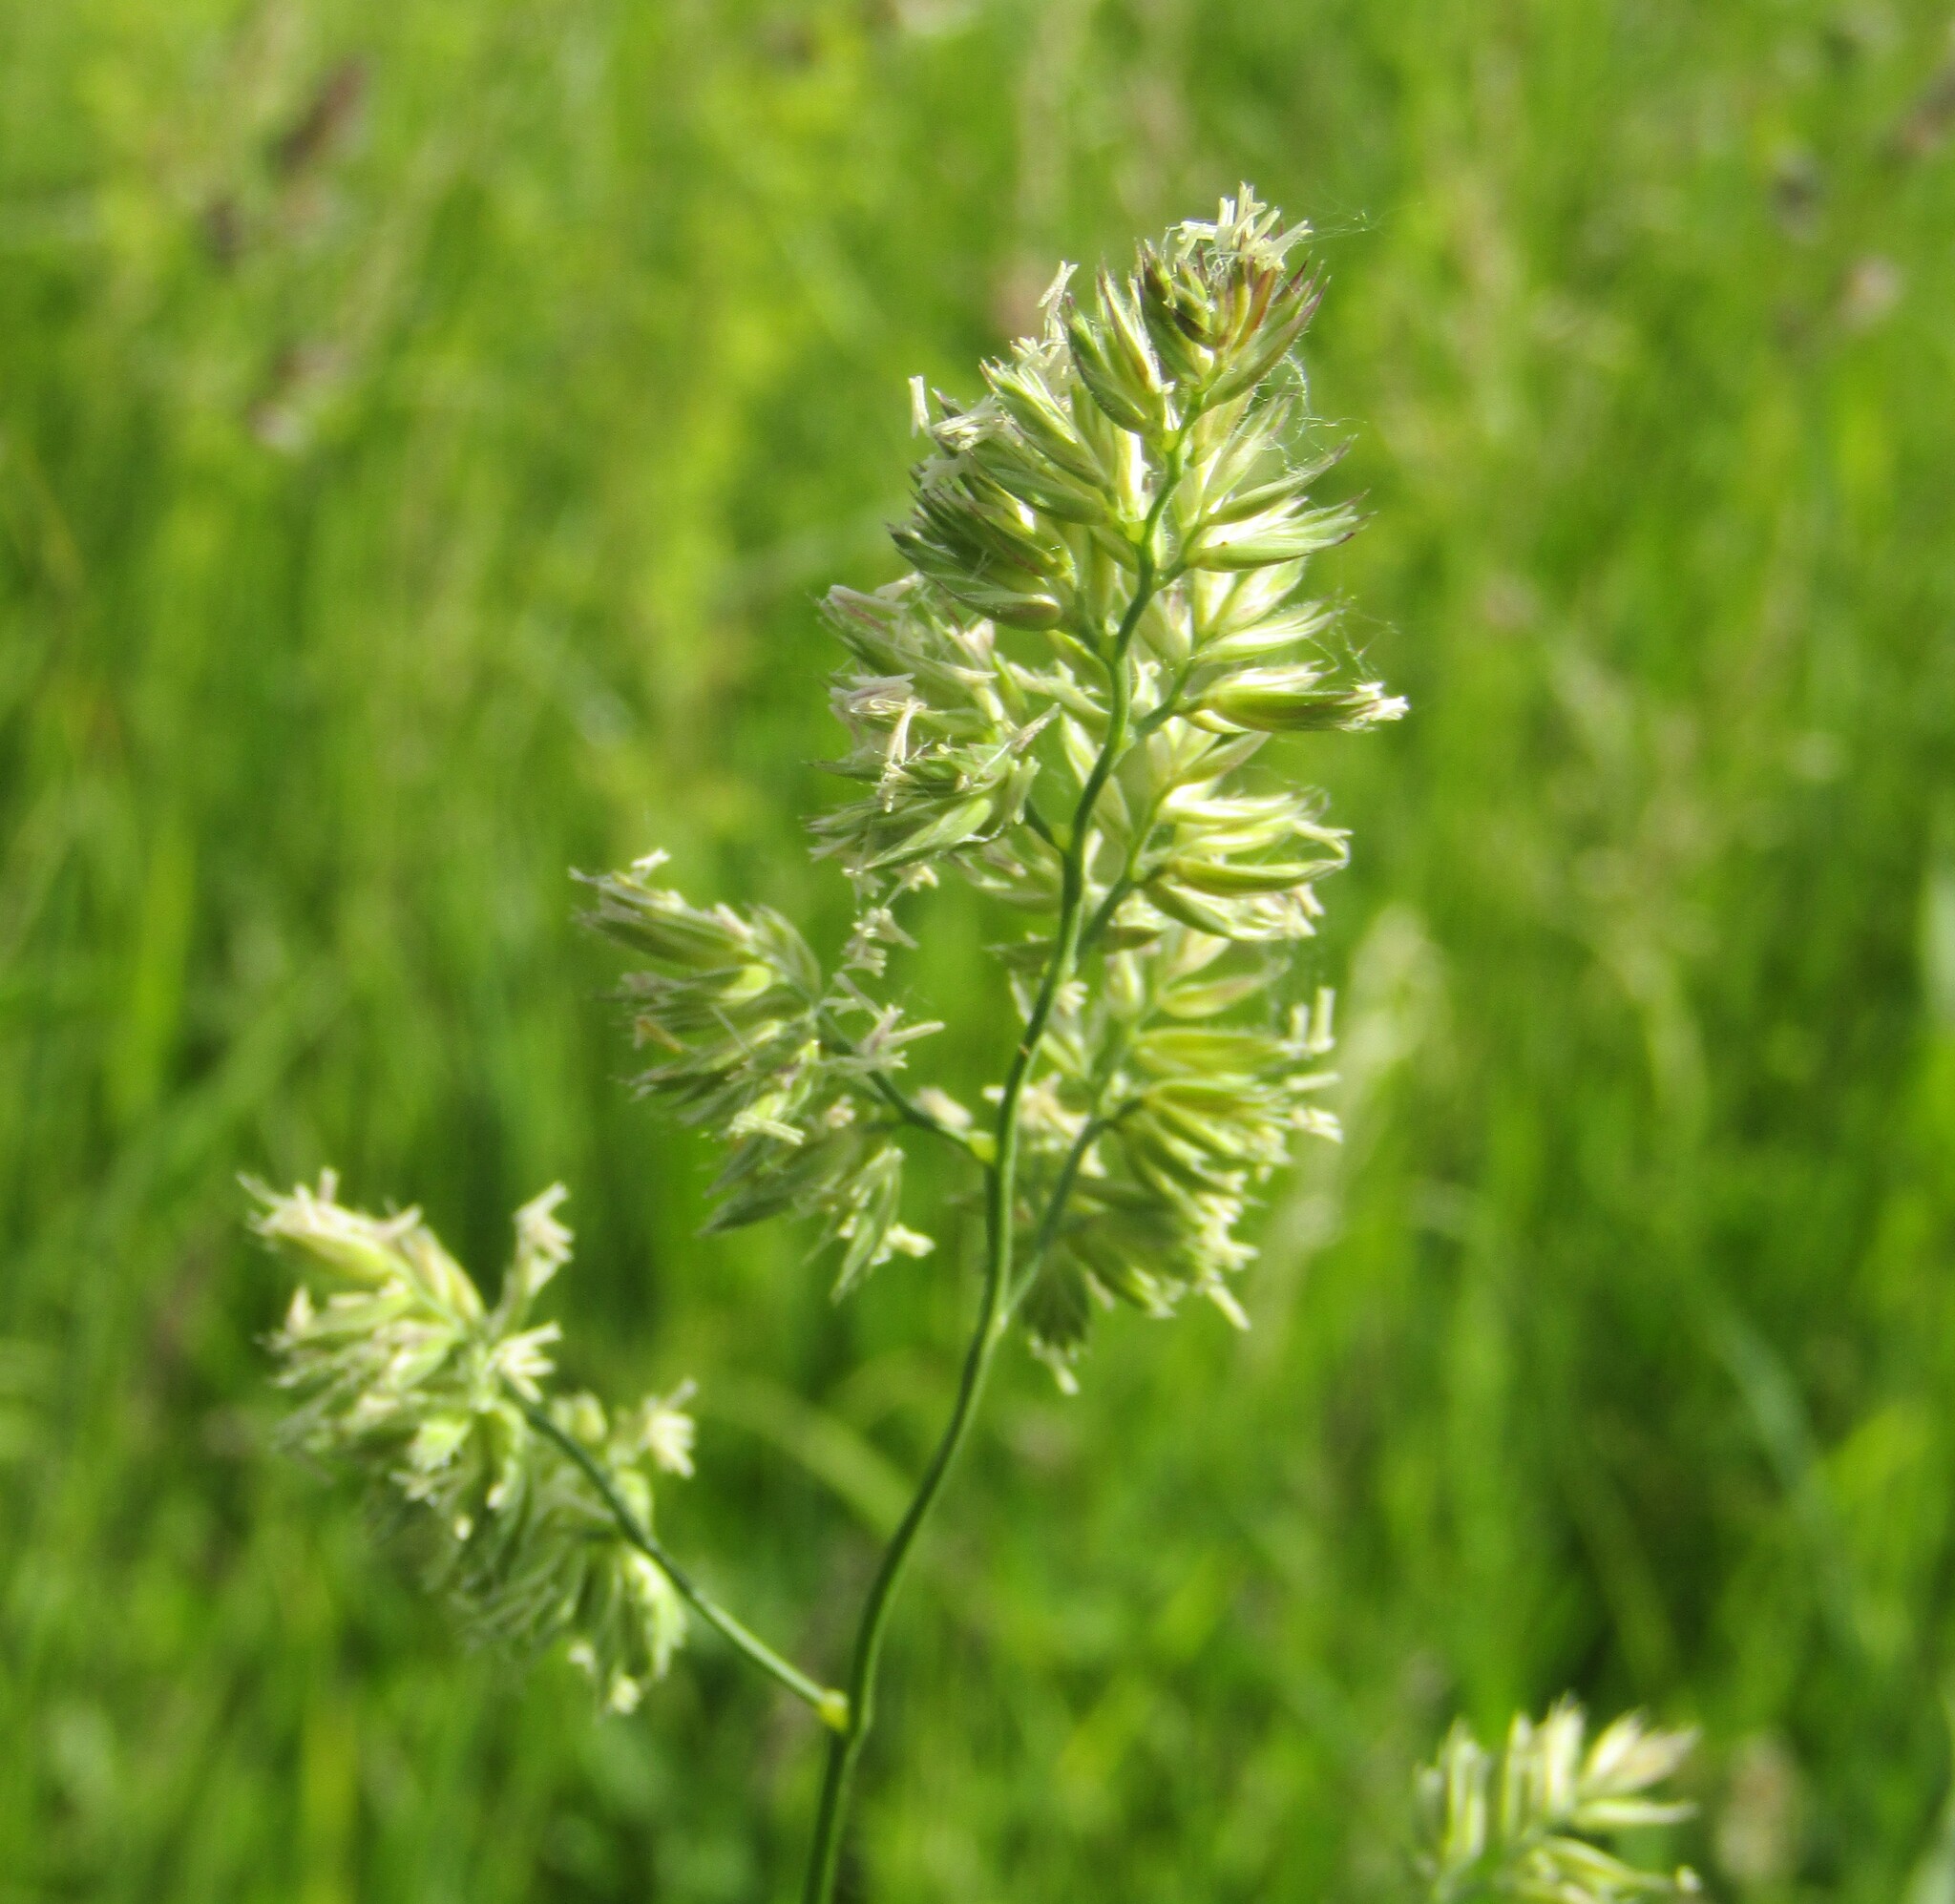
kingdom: Plantae
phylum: Tracheophyta
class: Liliopsida
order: Poales
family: Poaceae
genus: Dactylis
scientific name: Dactylis glomerata
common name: Orchardgrass
